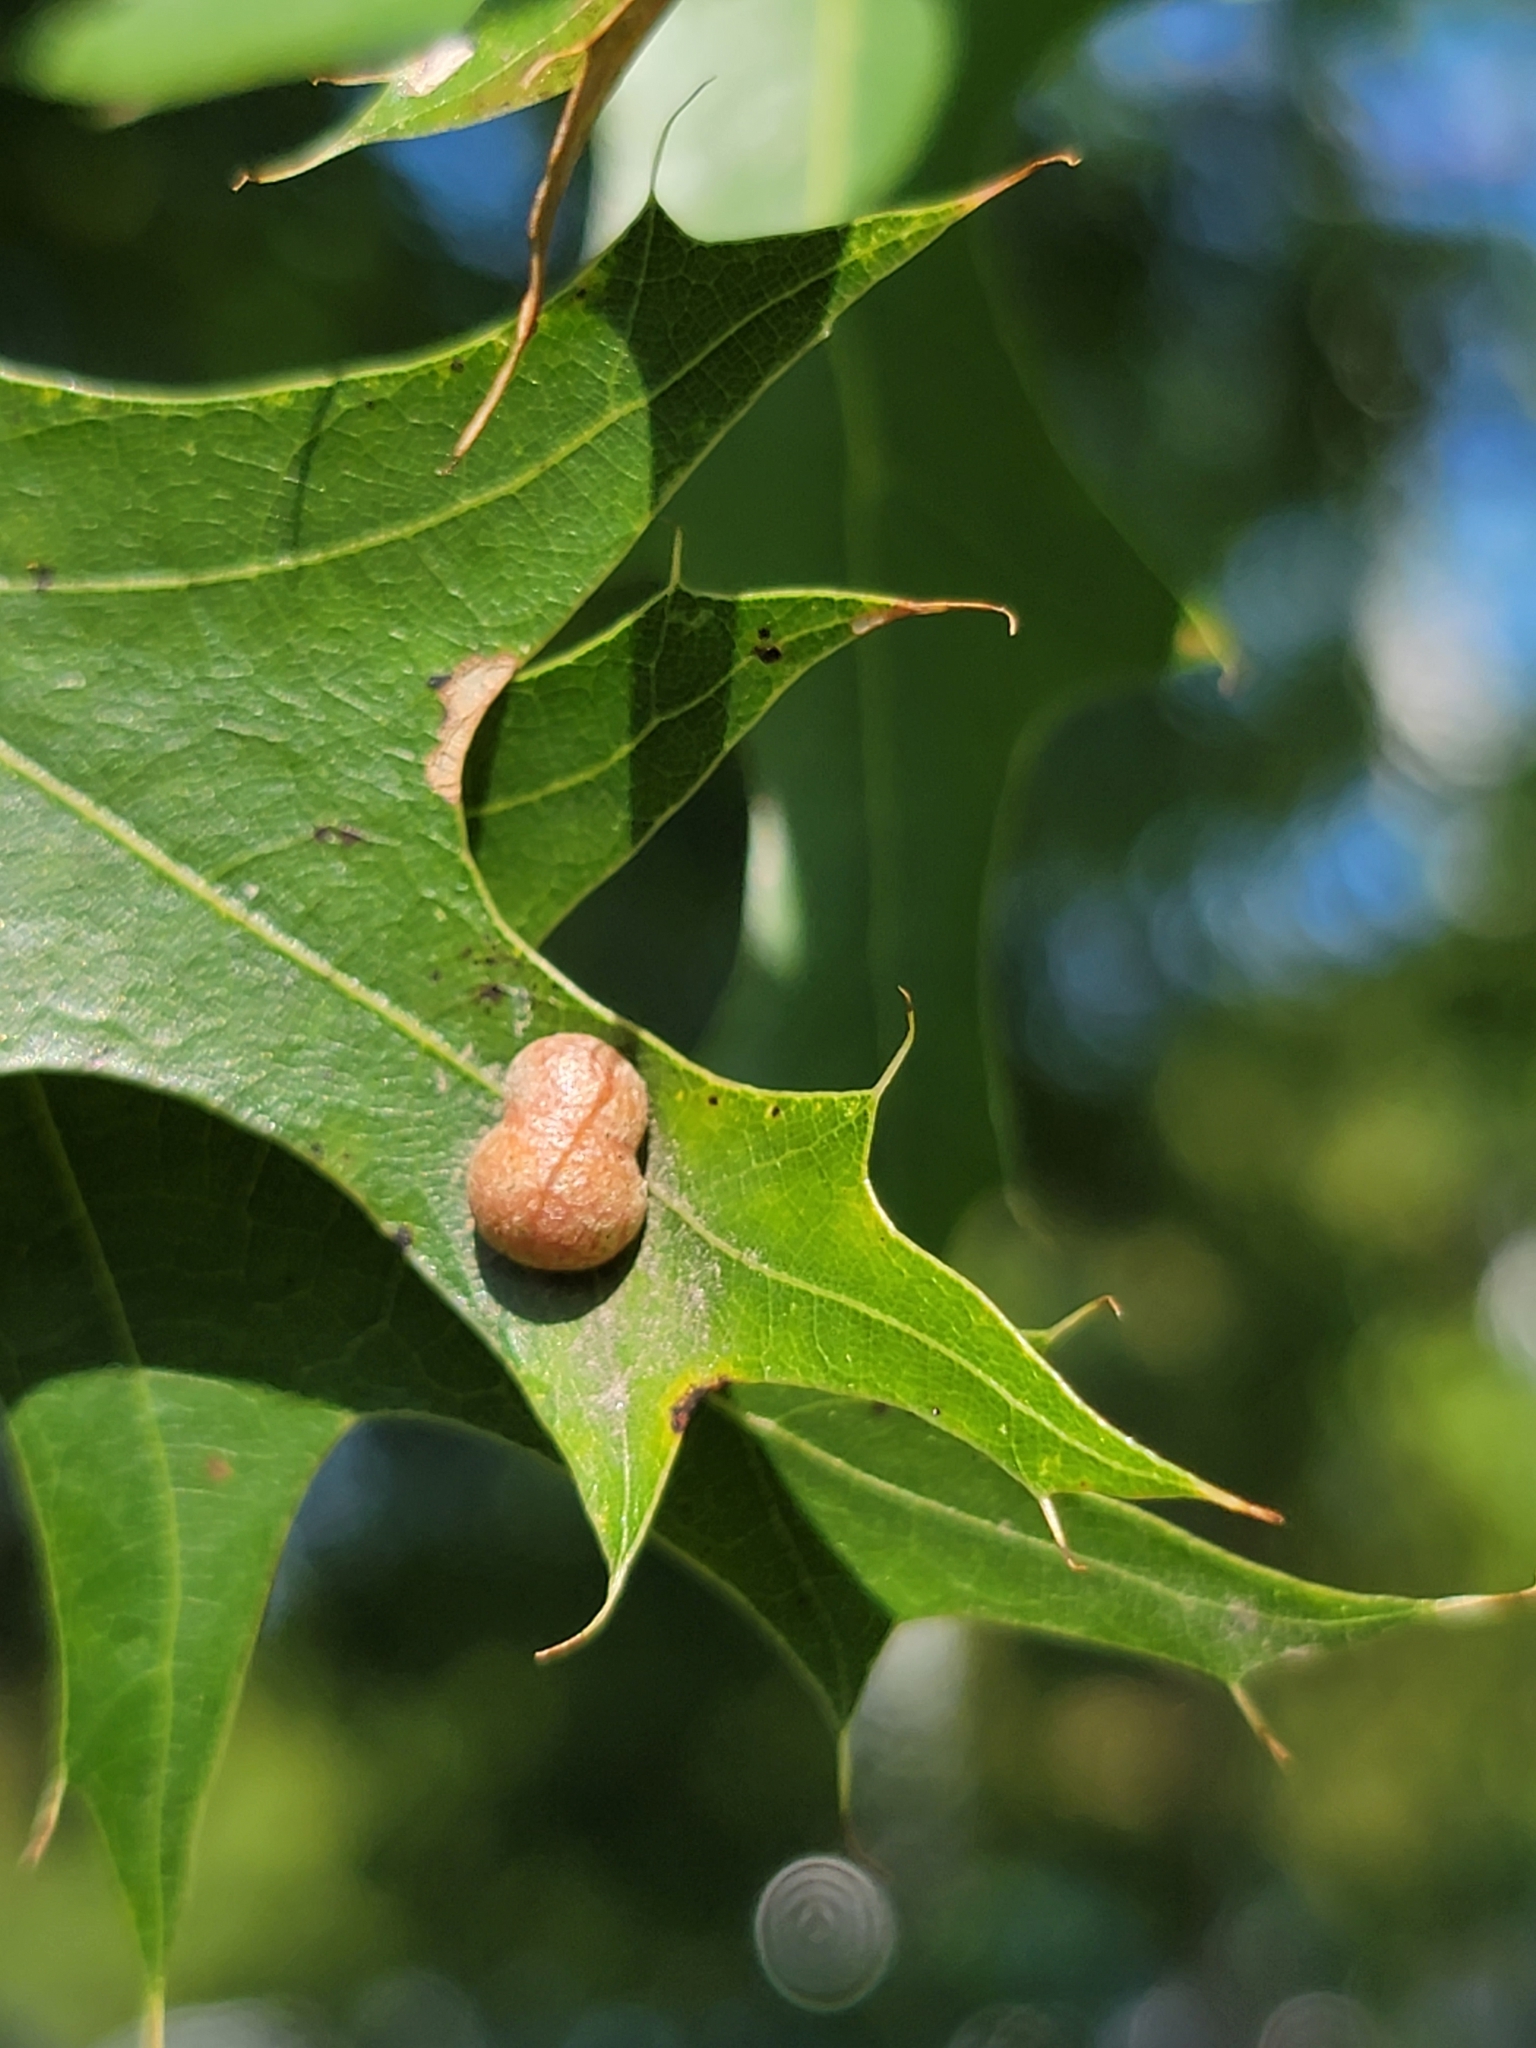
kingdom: Animalia
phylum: Arthropoda
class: Insecta
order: Diptera
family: Cecidomyiidae
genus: Polystepha
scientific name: Polystepha pilulae
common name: Oak leaf gall midge
